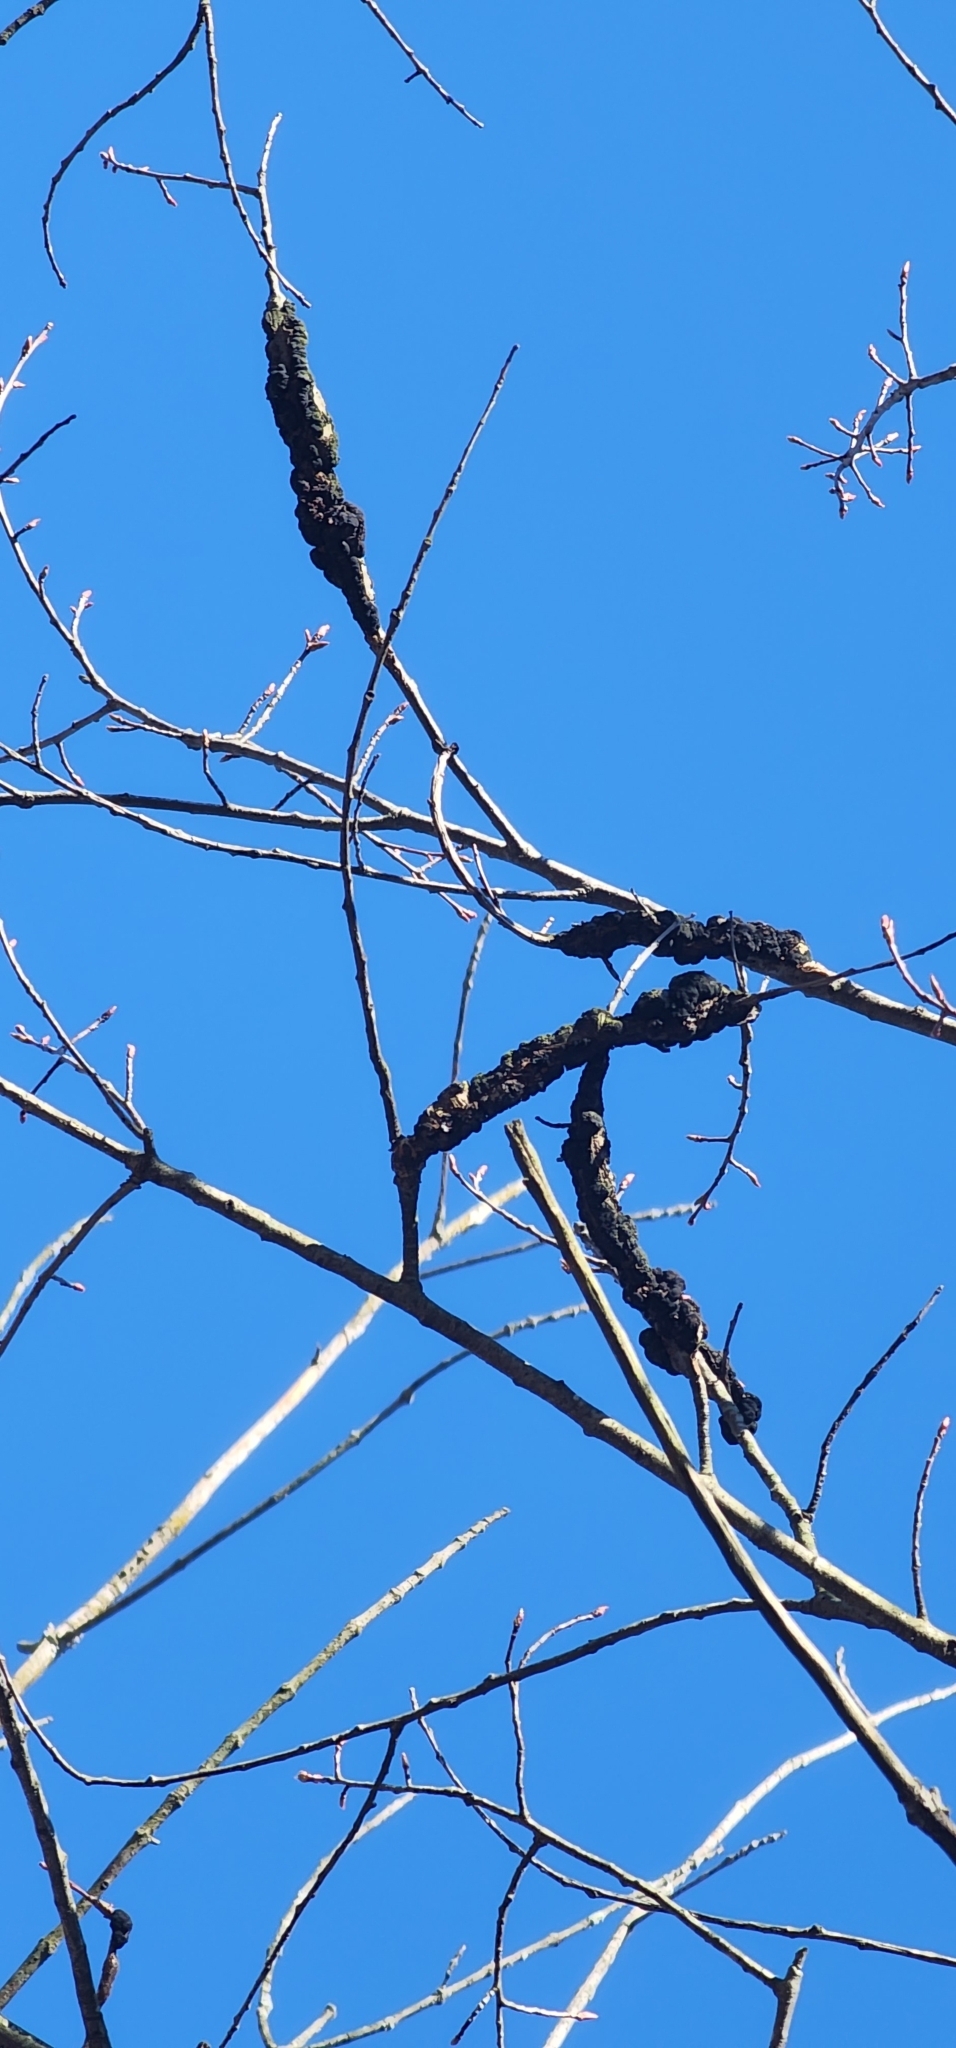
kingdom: Fungi
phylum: Ascomycota
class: Dothideomycetes
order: Venturiales
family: Venturiaceae
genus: Apiosporina
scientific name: Apiosporina morbosa
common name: Black knot
